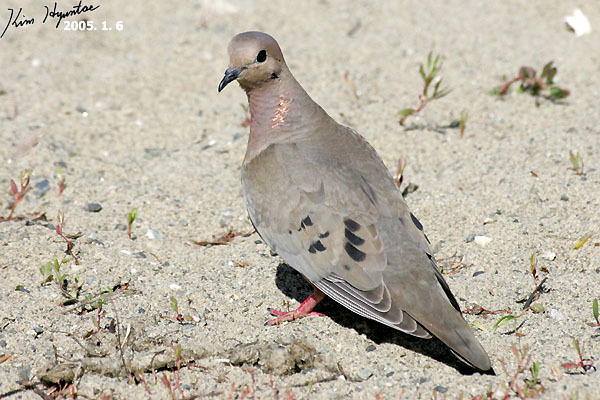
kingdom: Animalia
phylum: Chordata
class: Aves
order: Columbiformes
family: Columbidae
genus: Zenaida
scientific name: Zenaida auriculata
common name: Eared dove
